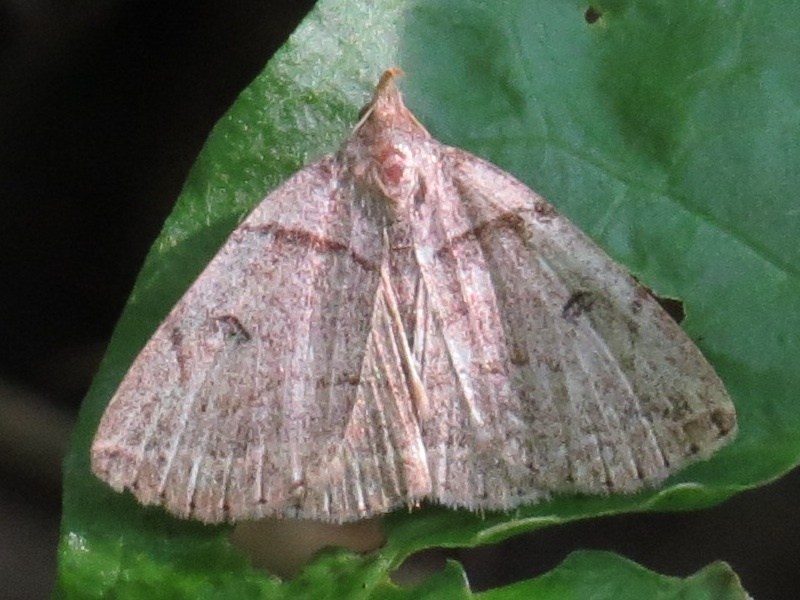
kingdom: Animalia
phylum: Arthropoda
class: Insecta
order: Lepidoptera
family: Erebidae
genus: Zanclognatha
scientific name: Zanclognatha laevigata
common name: Variable fan-foot
